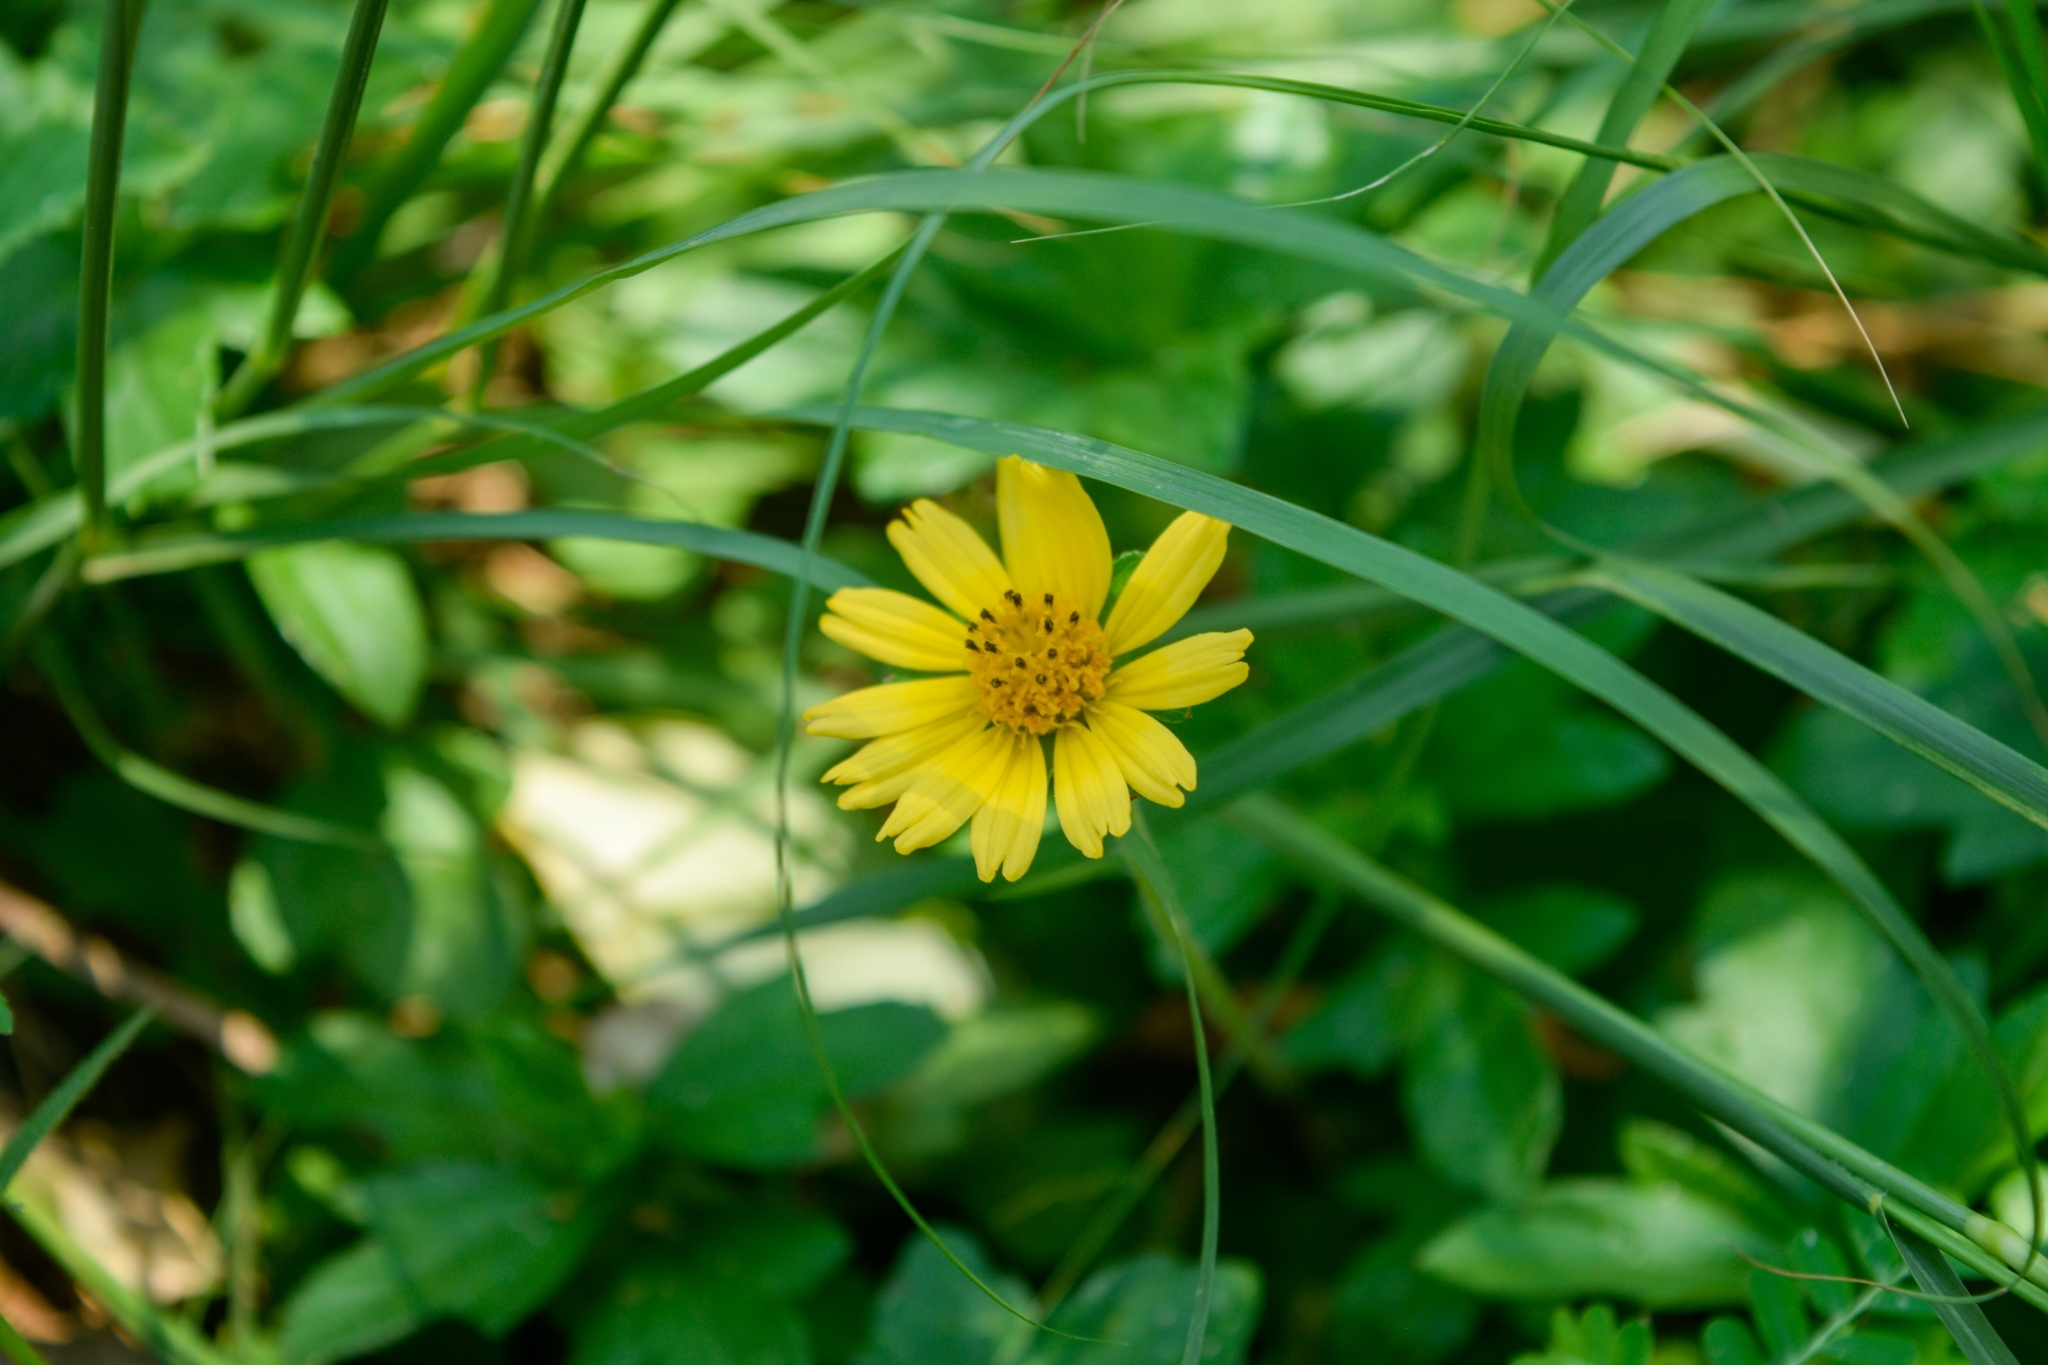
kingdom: Plantae
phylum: Tracheophyta
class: Magnoliopsida
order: Asterales
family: Asteraceae
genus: Sphagneticola
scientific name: Sphagneticola trilobata
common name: Bay biscayne creeping-oxeye
